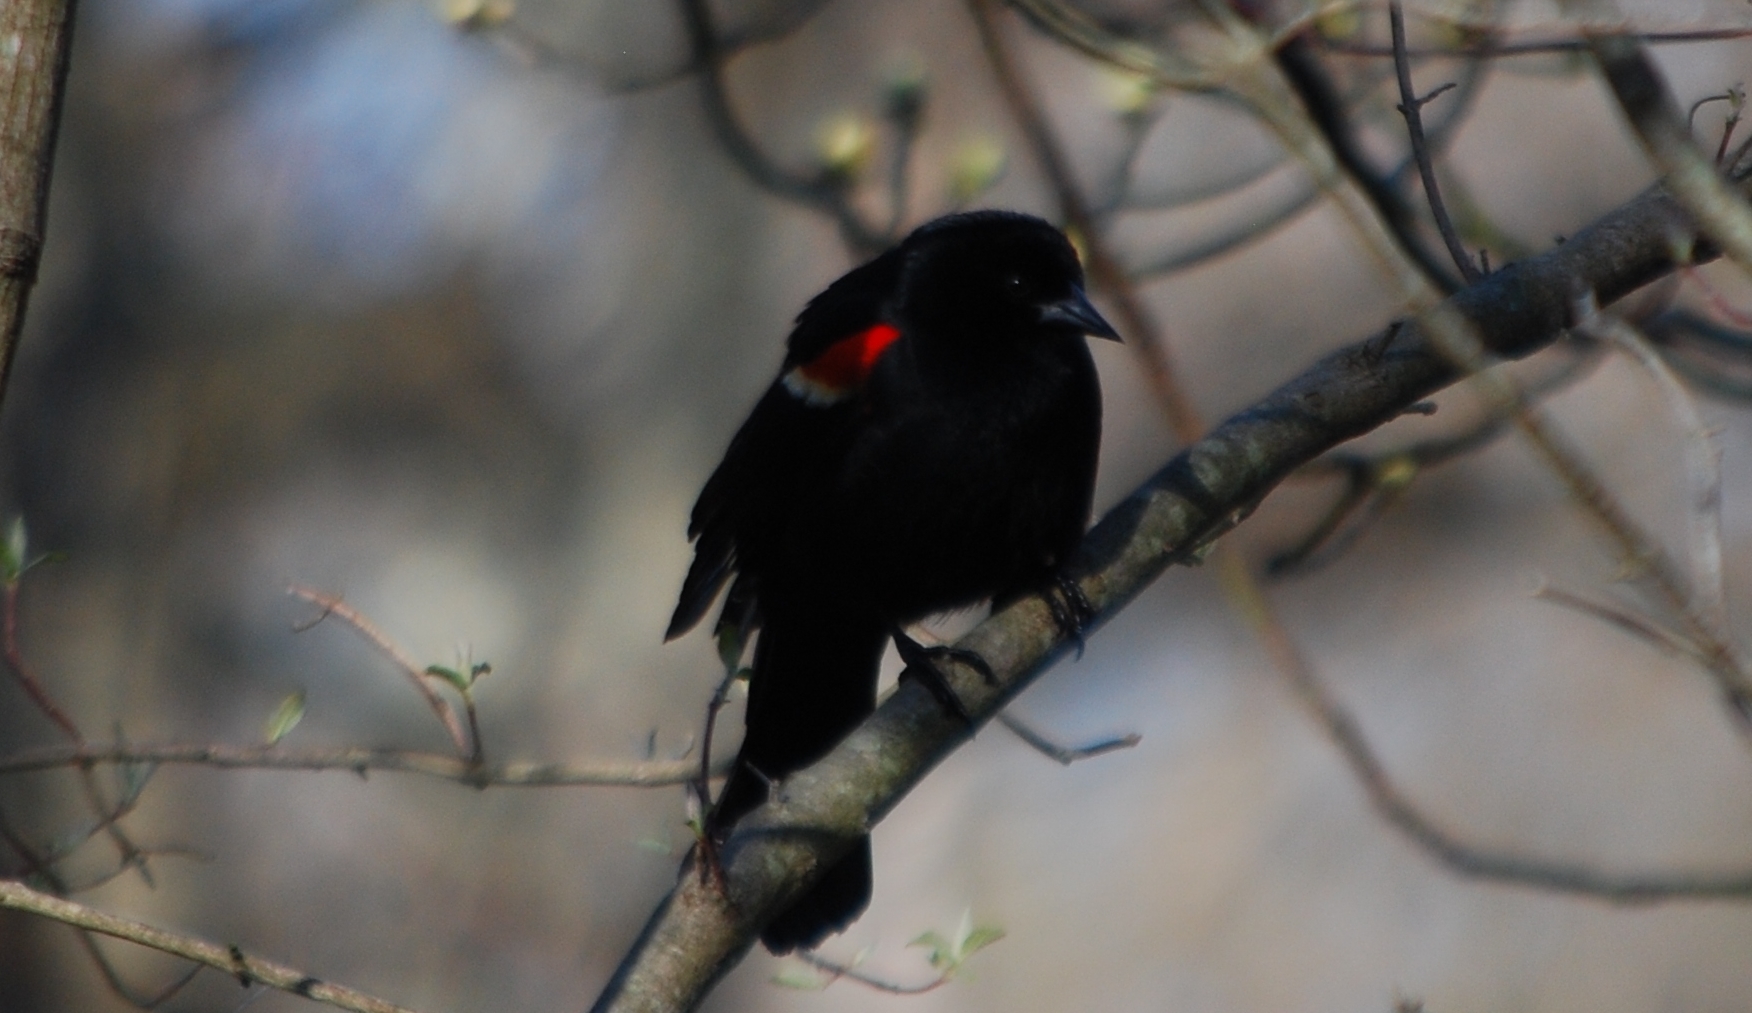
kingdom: Animalia
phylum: Chordata
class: Aves
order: Passeriformes
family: Icteridae
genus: Agelaius
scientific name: Agelaius phoeniceus
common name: Red-winged blackbird
